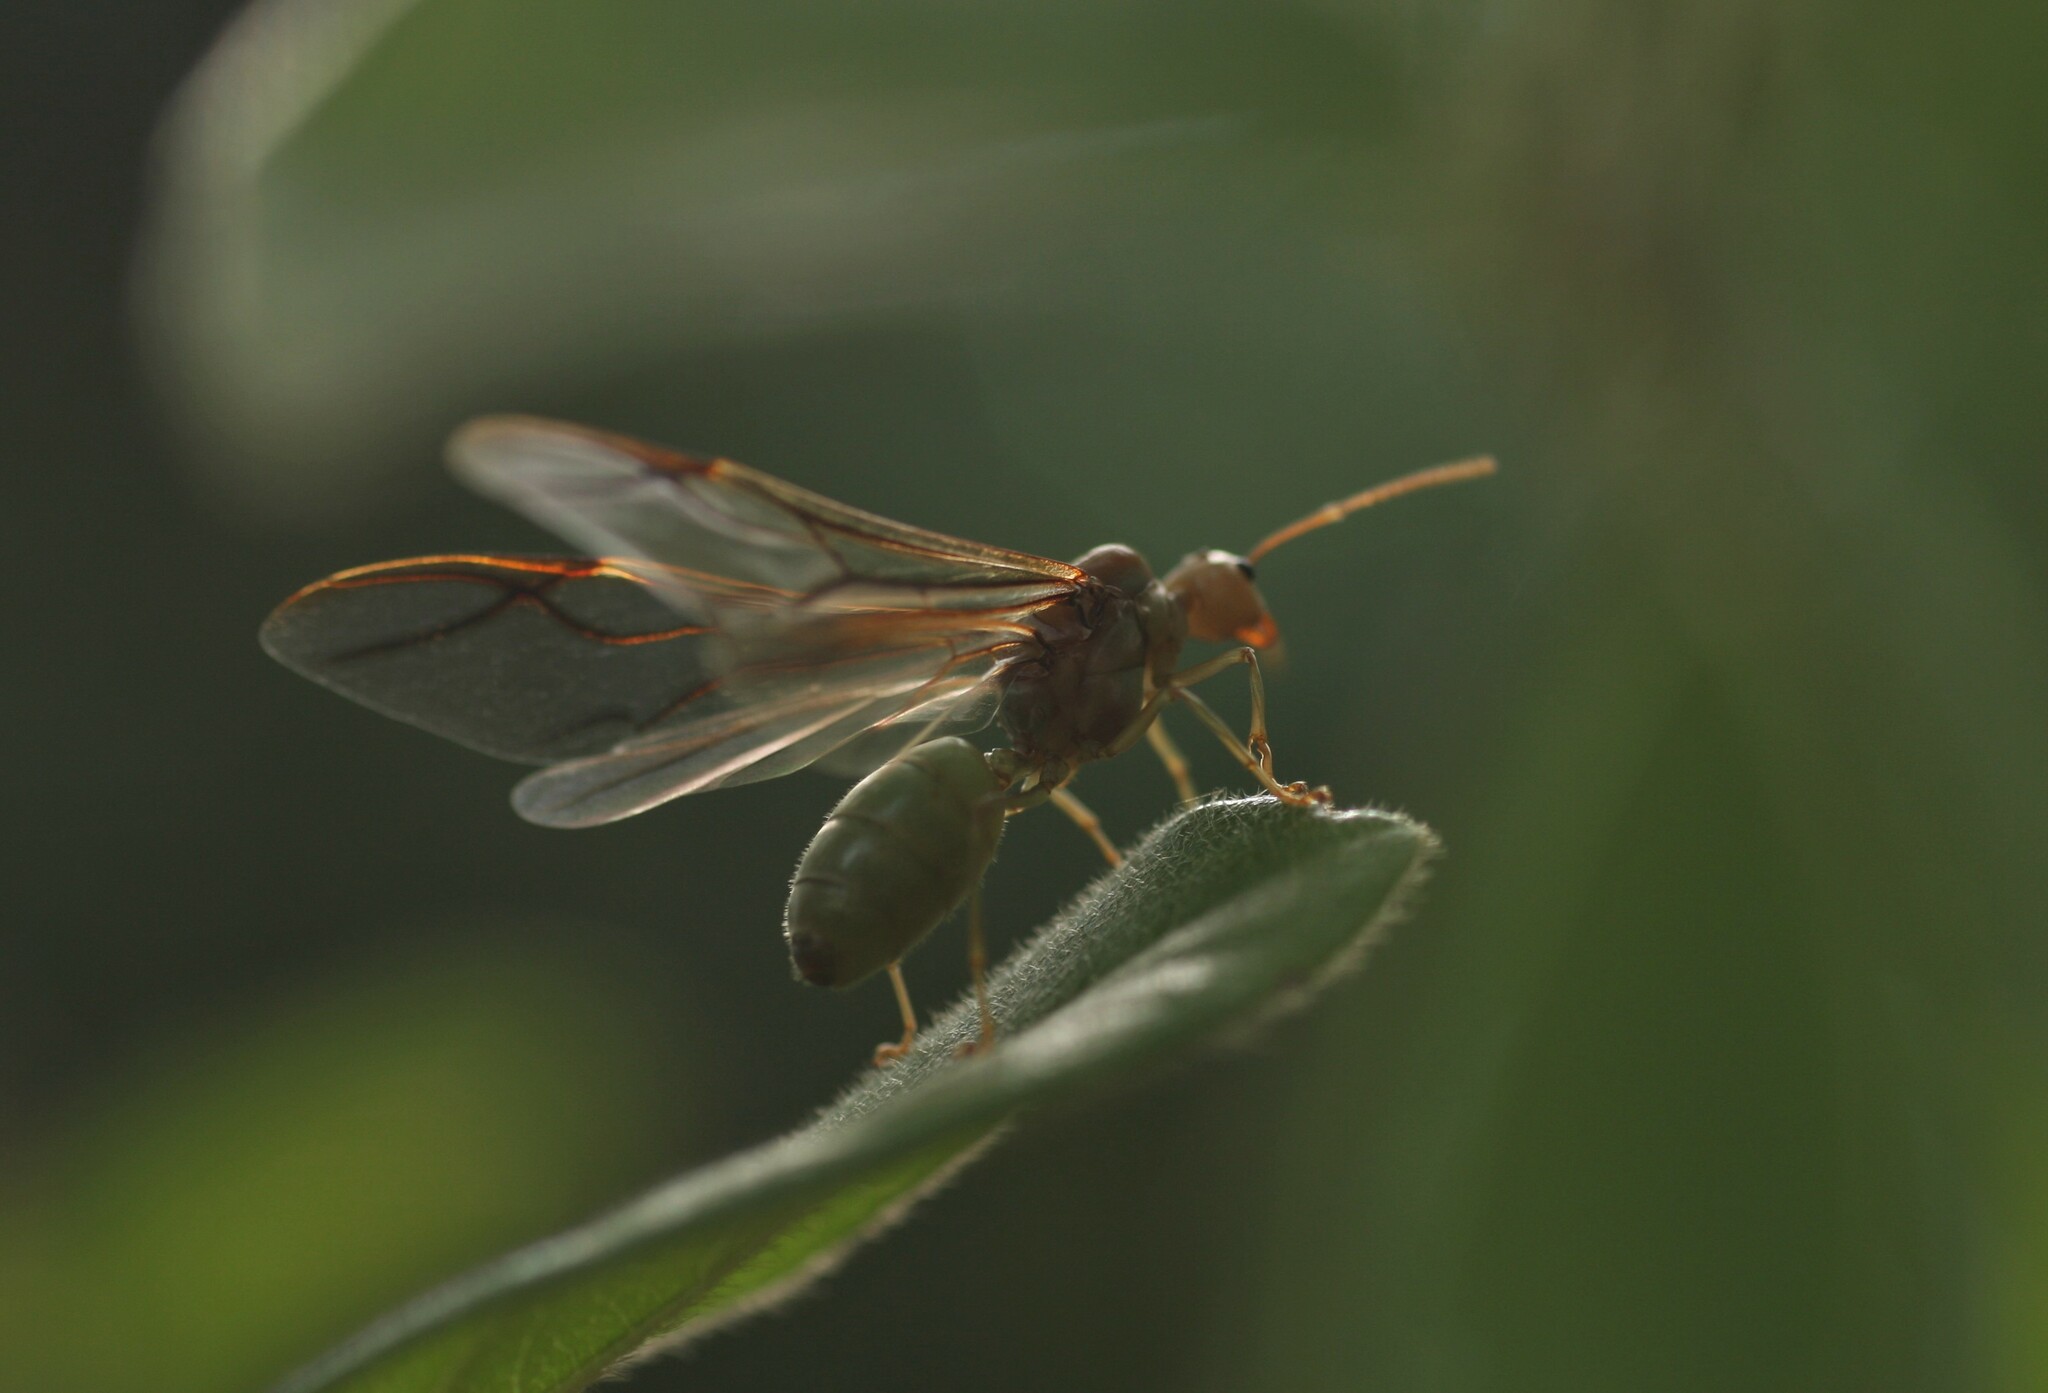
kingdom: Animalia
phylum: Arthropoda
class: Insecta
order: Hymenoptera
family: Formicidae
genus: Oecophylla
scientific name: Oecophylla smaragdina
